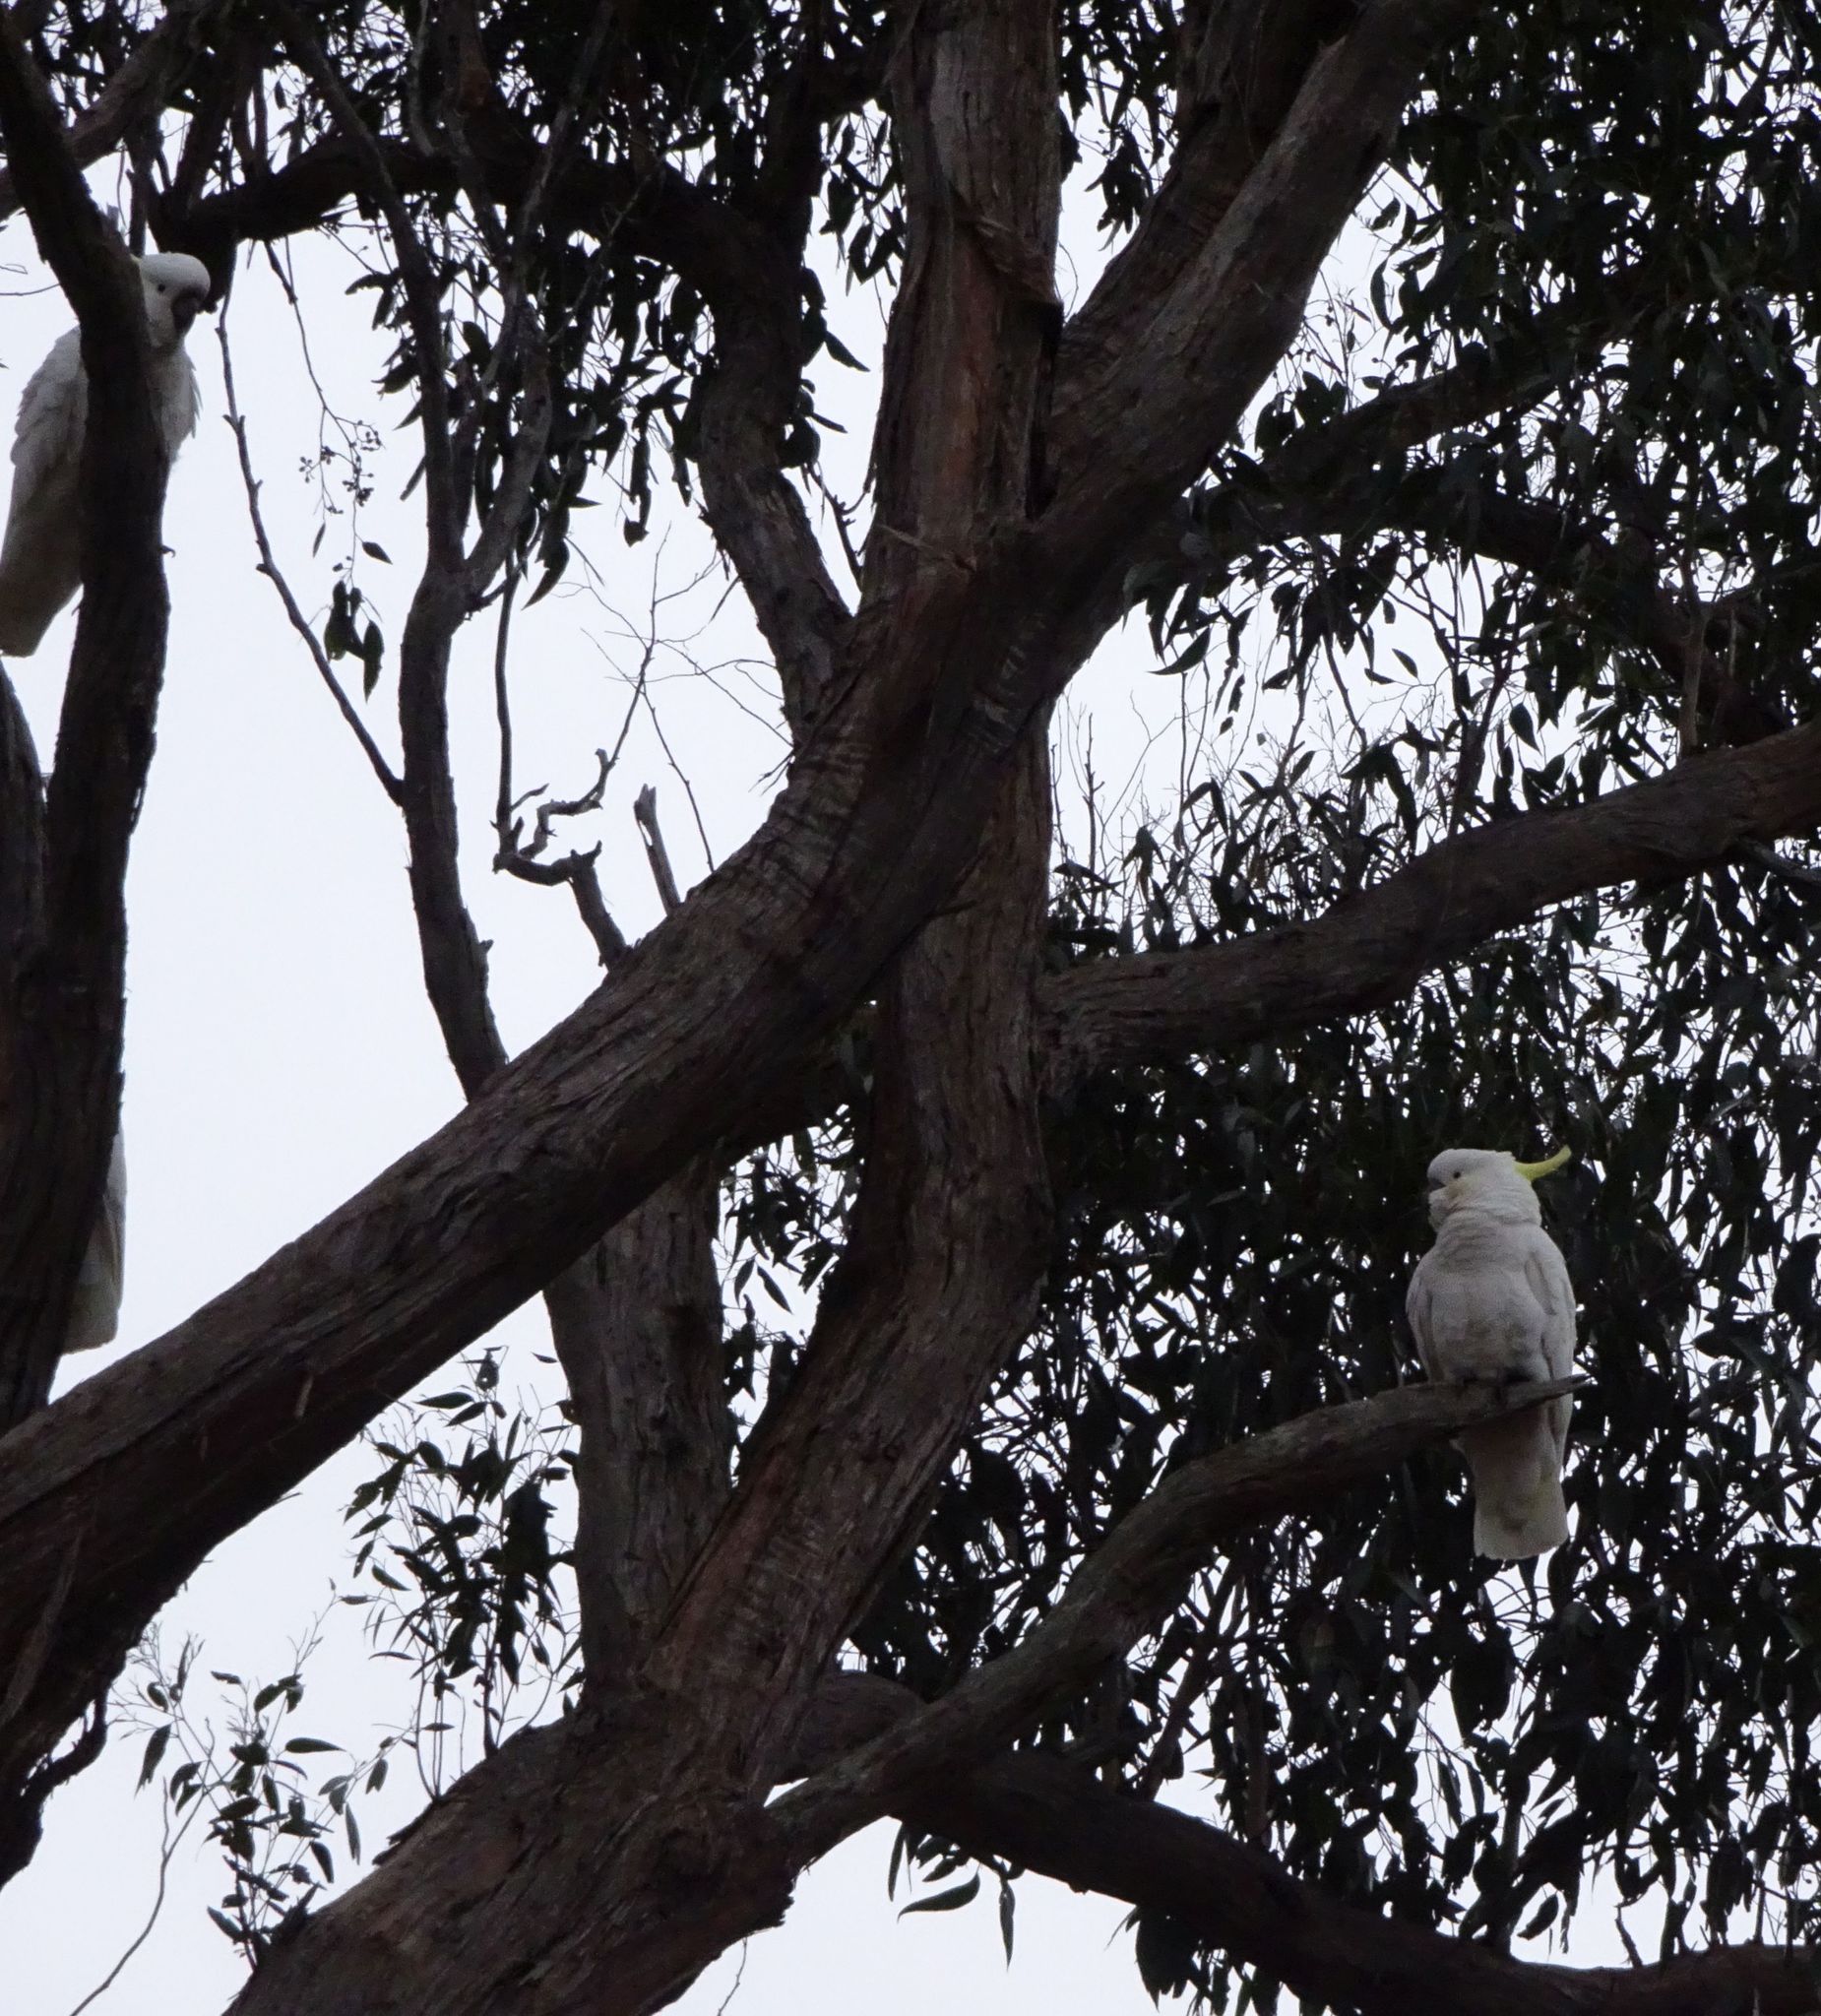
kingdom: Animalia
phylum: Chordata
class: Aves
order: Psittaciformes
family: Psittacidae
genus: Cacatua
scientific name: Cacatua galerita
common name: Sulphur-crested cockatoo
